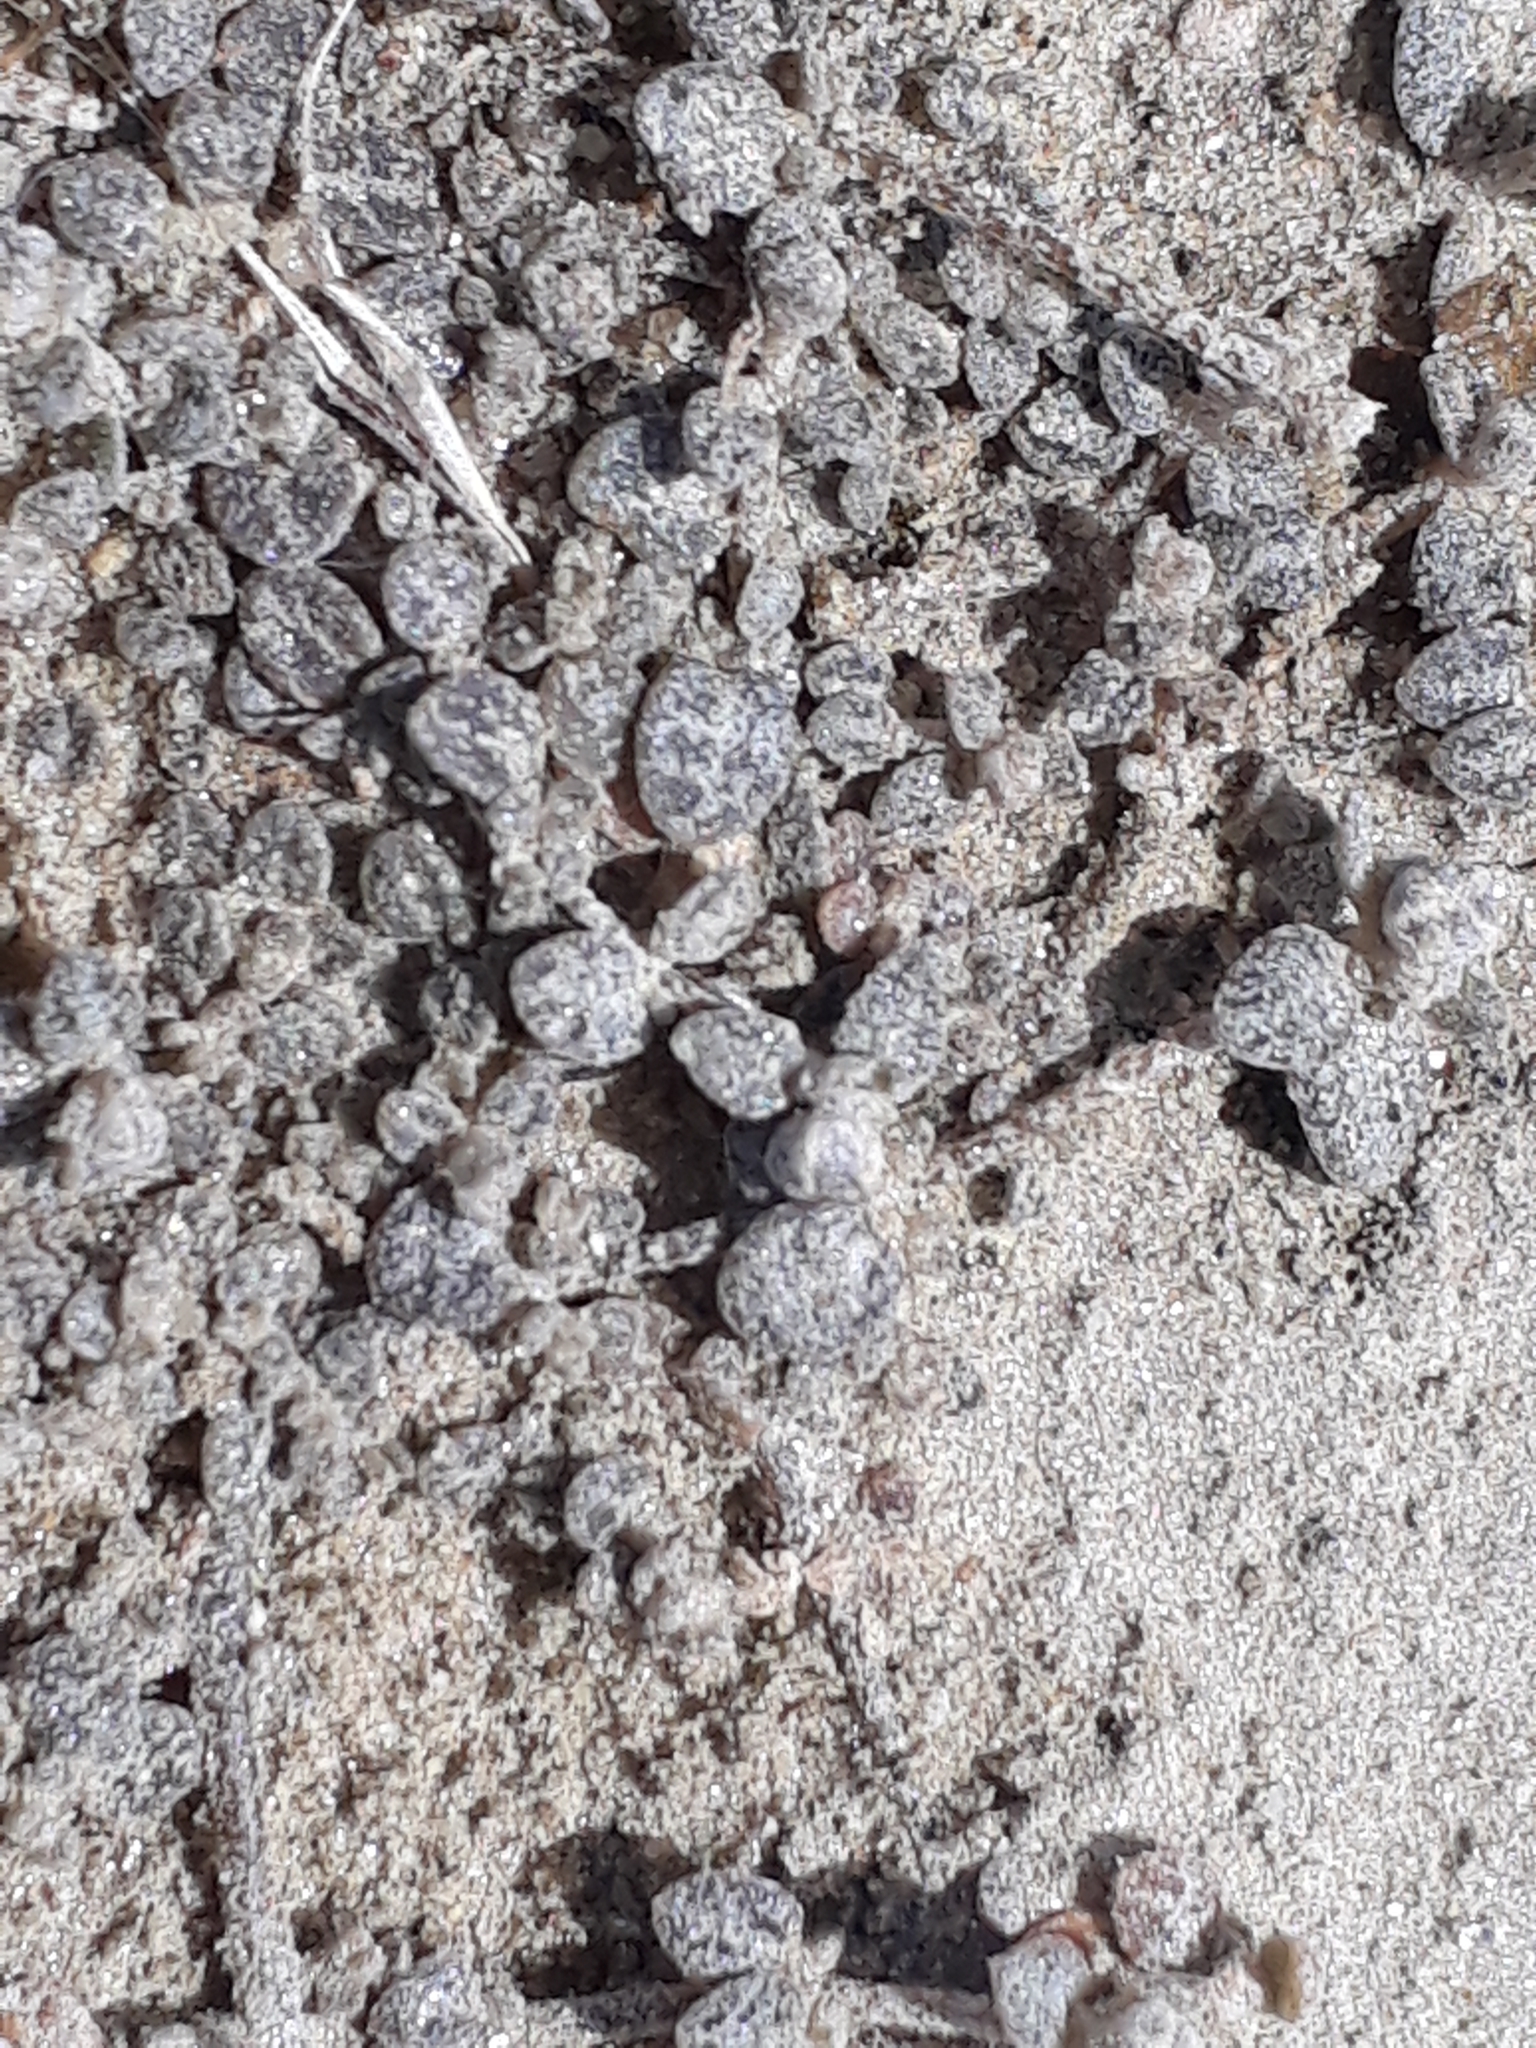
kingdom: Plantae
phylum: Tracheophyta
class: Magnoliopsida
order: Caryophyllales
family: Amaranthaceae
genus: Atriplex
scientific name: Atriplex buchananii
